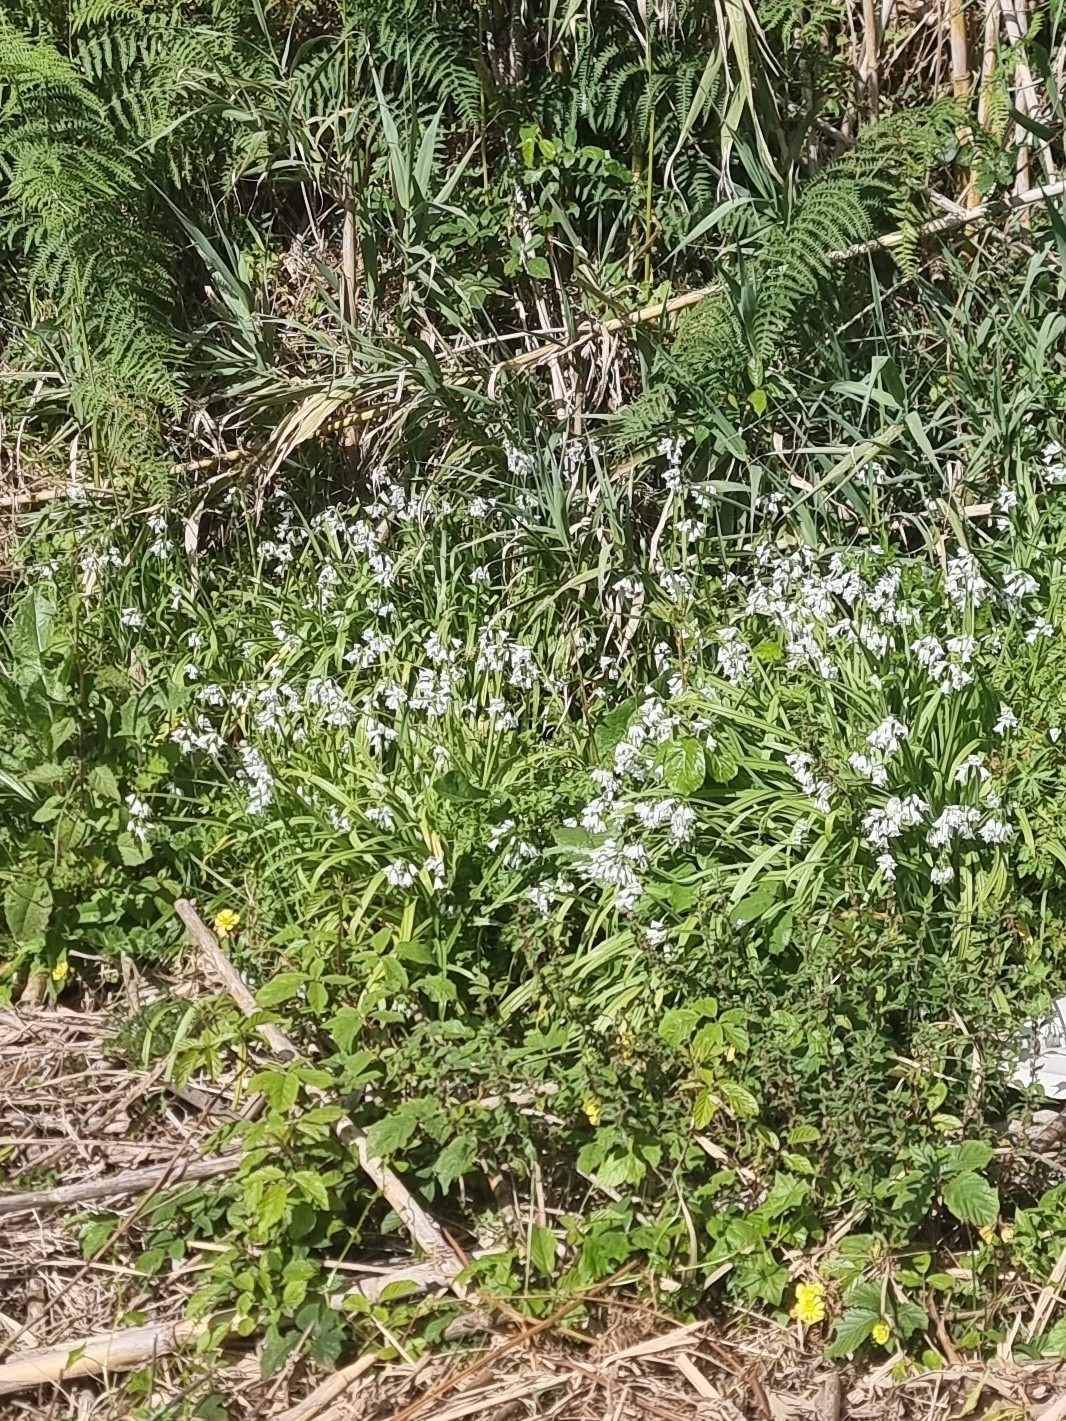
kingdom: Plantae
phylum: Tracheophyta
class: Liliopsida
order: Asparagales
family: Amaryllidaceae
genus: Allium
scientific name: Allium triquetrum
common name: Three-cornered garlic
